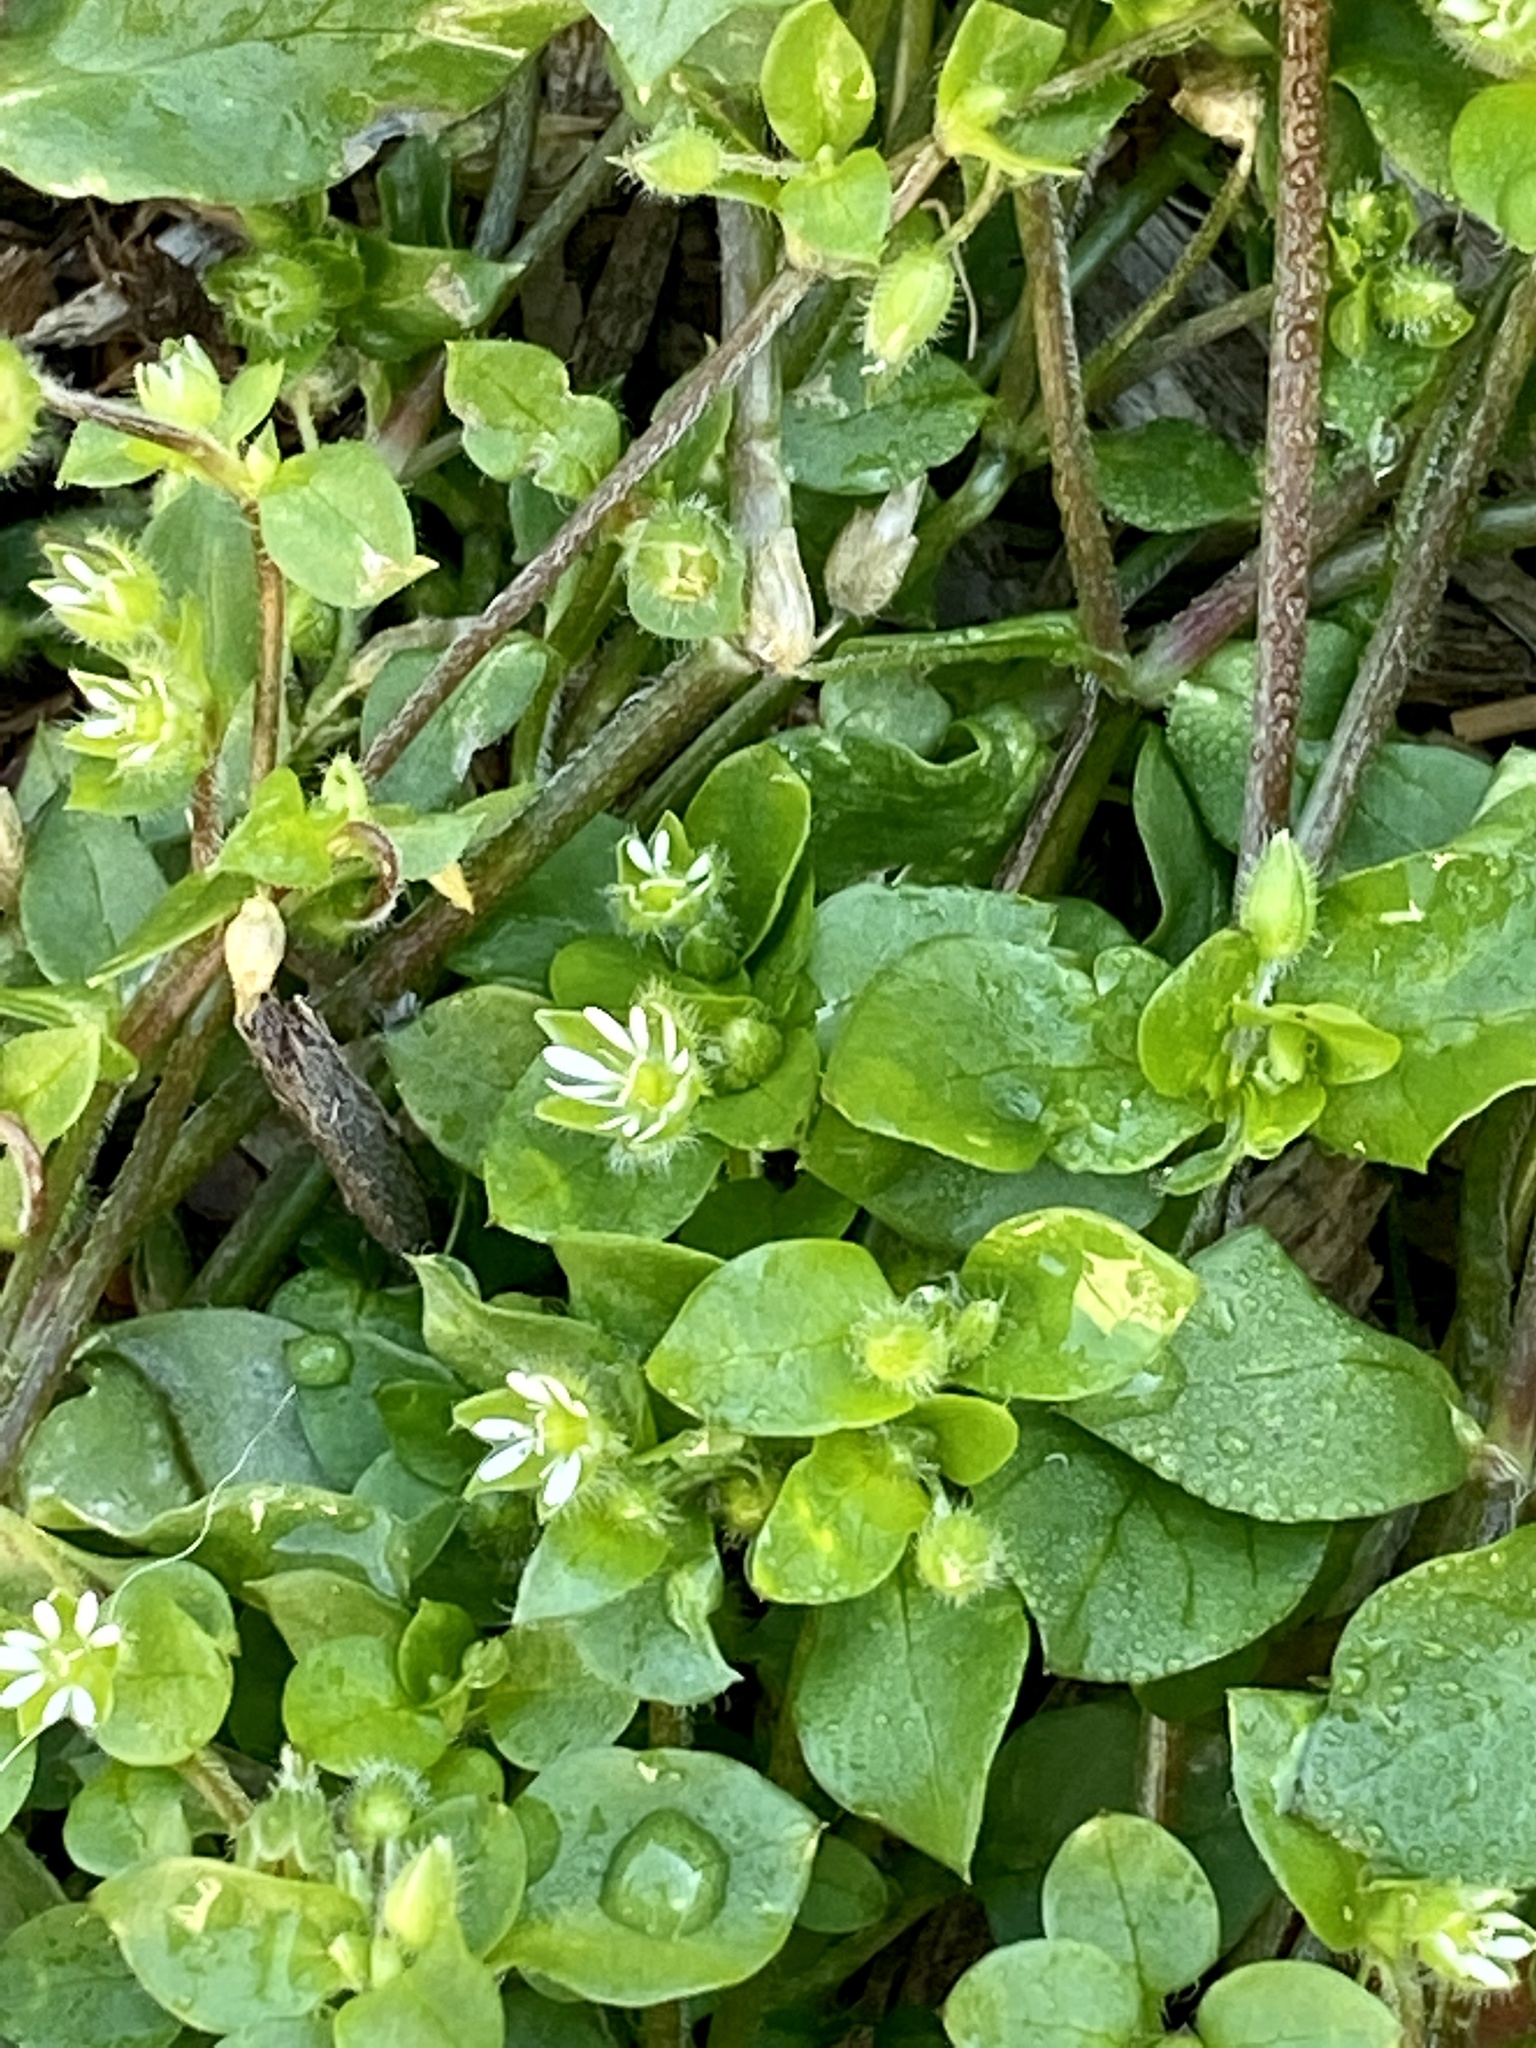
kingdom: Plantae
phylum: Tracheophyta
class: Magnoliopsida
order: Caryophyllales
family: Caryophyllaceae
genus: Stellaria
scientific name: Stellaria media
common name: Common chickweed
